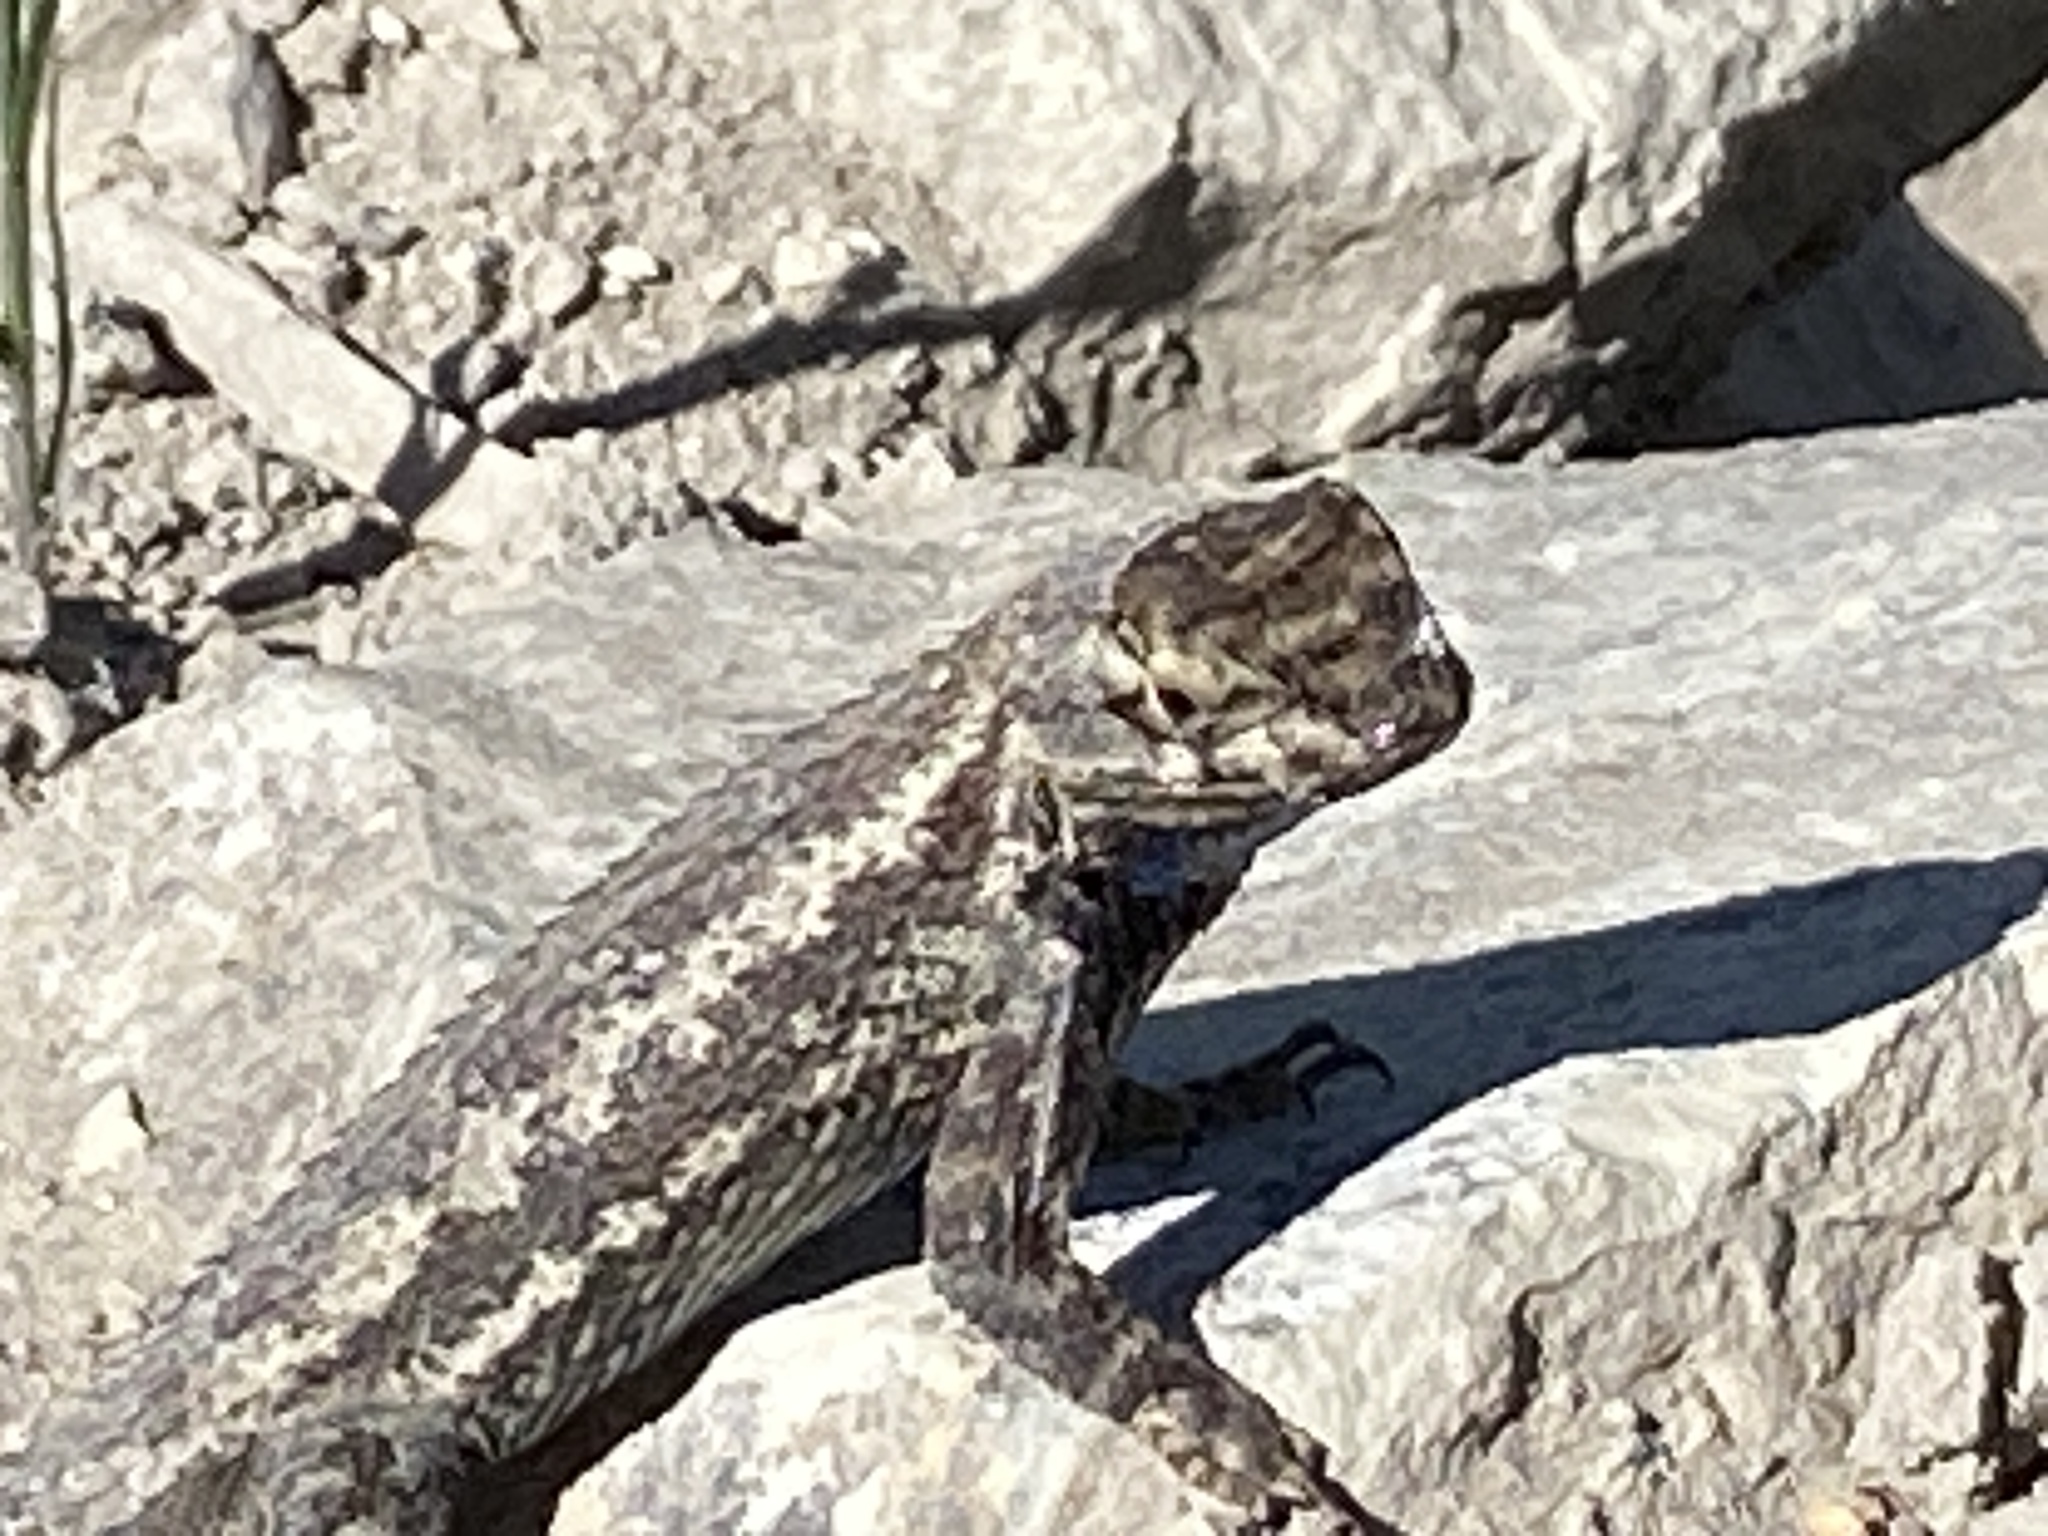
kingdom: Animalia
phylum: Chordata
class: Squamata
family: Phrynosomatidae
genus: Sceloporus
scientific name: Sceloporus occidentalis
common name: Western fence lizard
